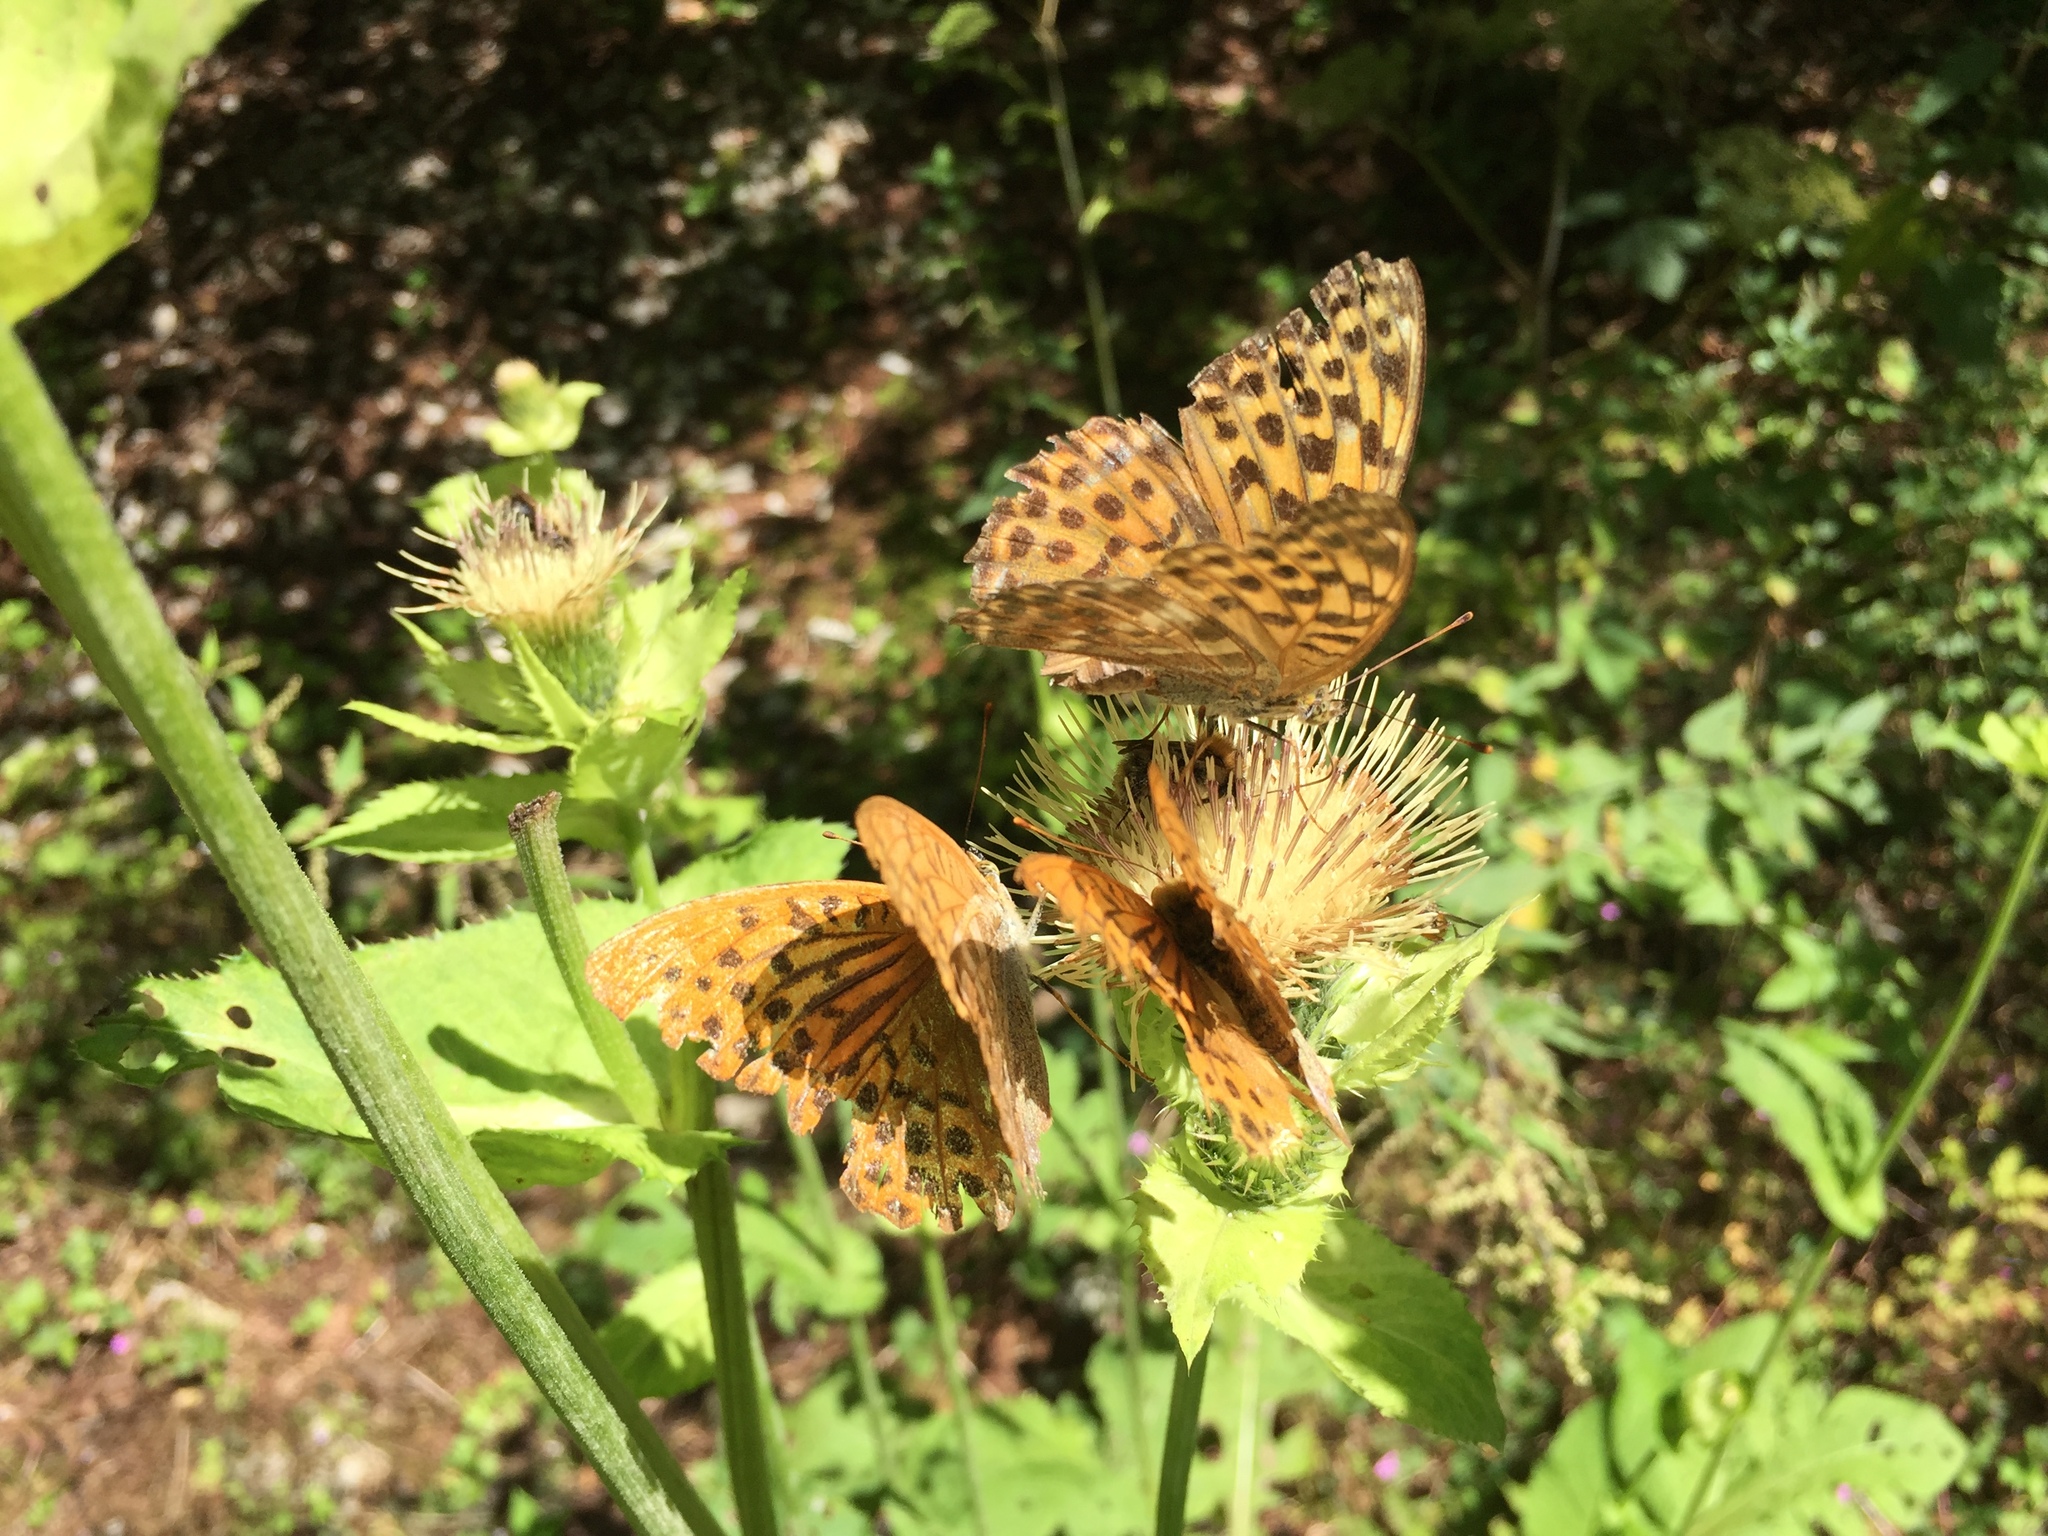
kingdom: Animalia
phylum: Arthropoda
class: Insecta
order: Lepidoptera
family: Nymphalidae
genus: Argynnis
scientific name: Argynnis paphia
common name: Silver-washed fritillary
